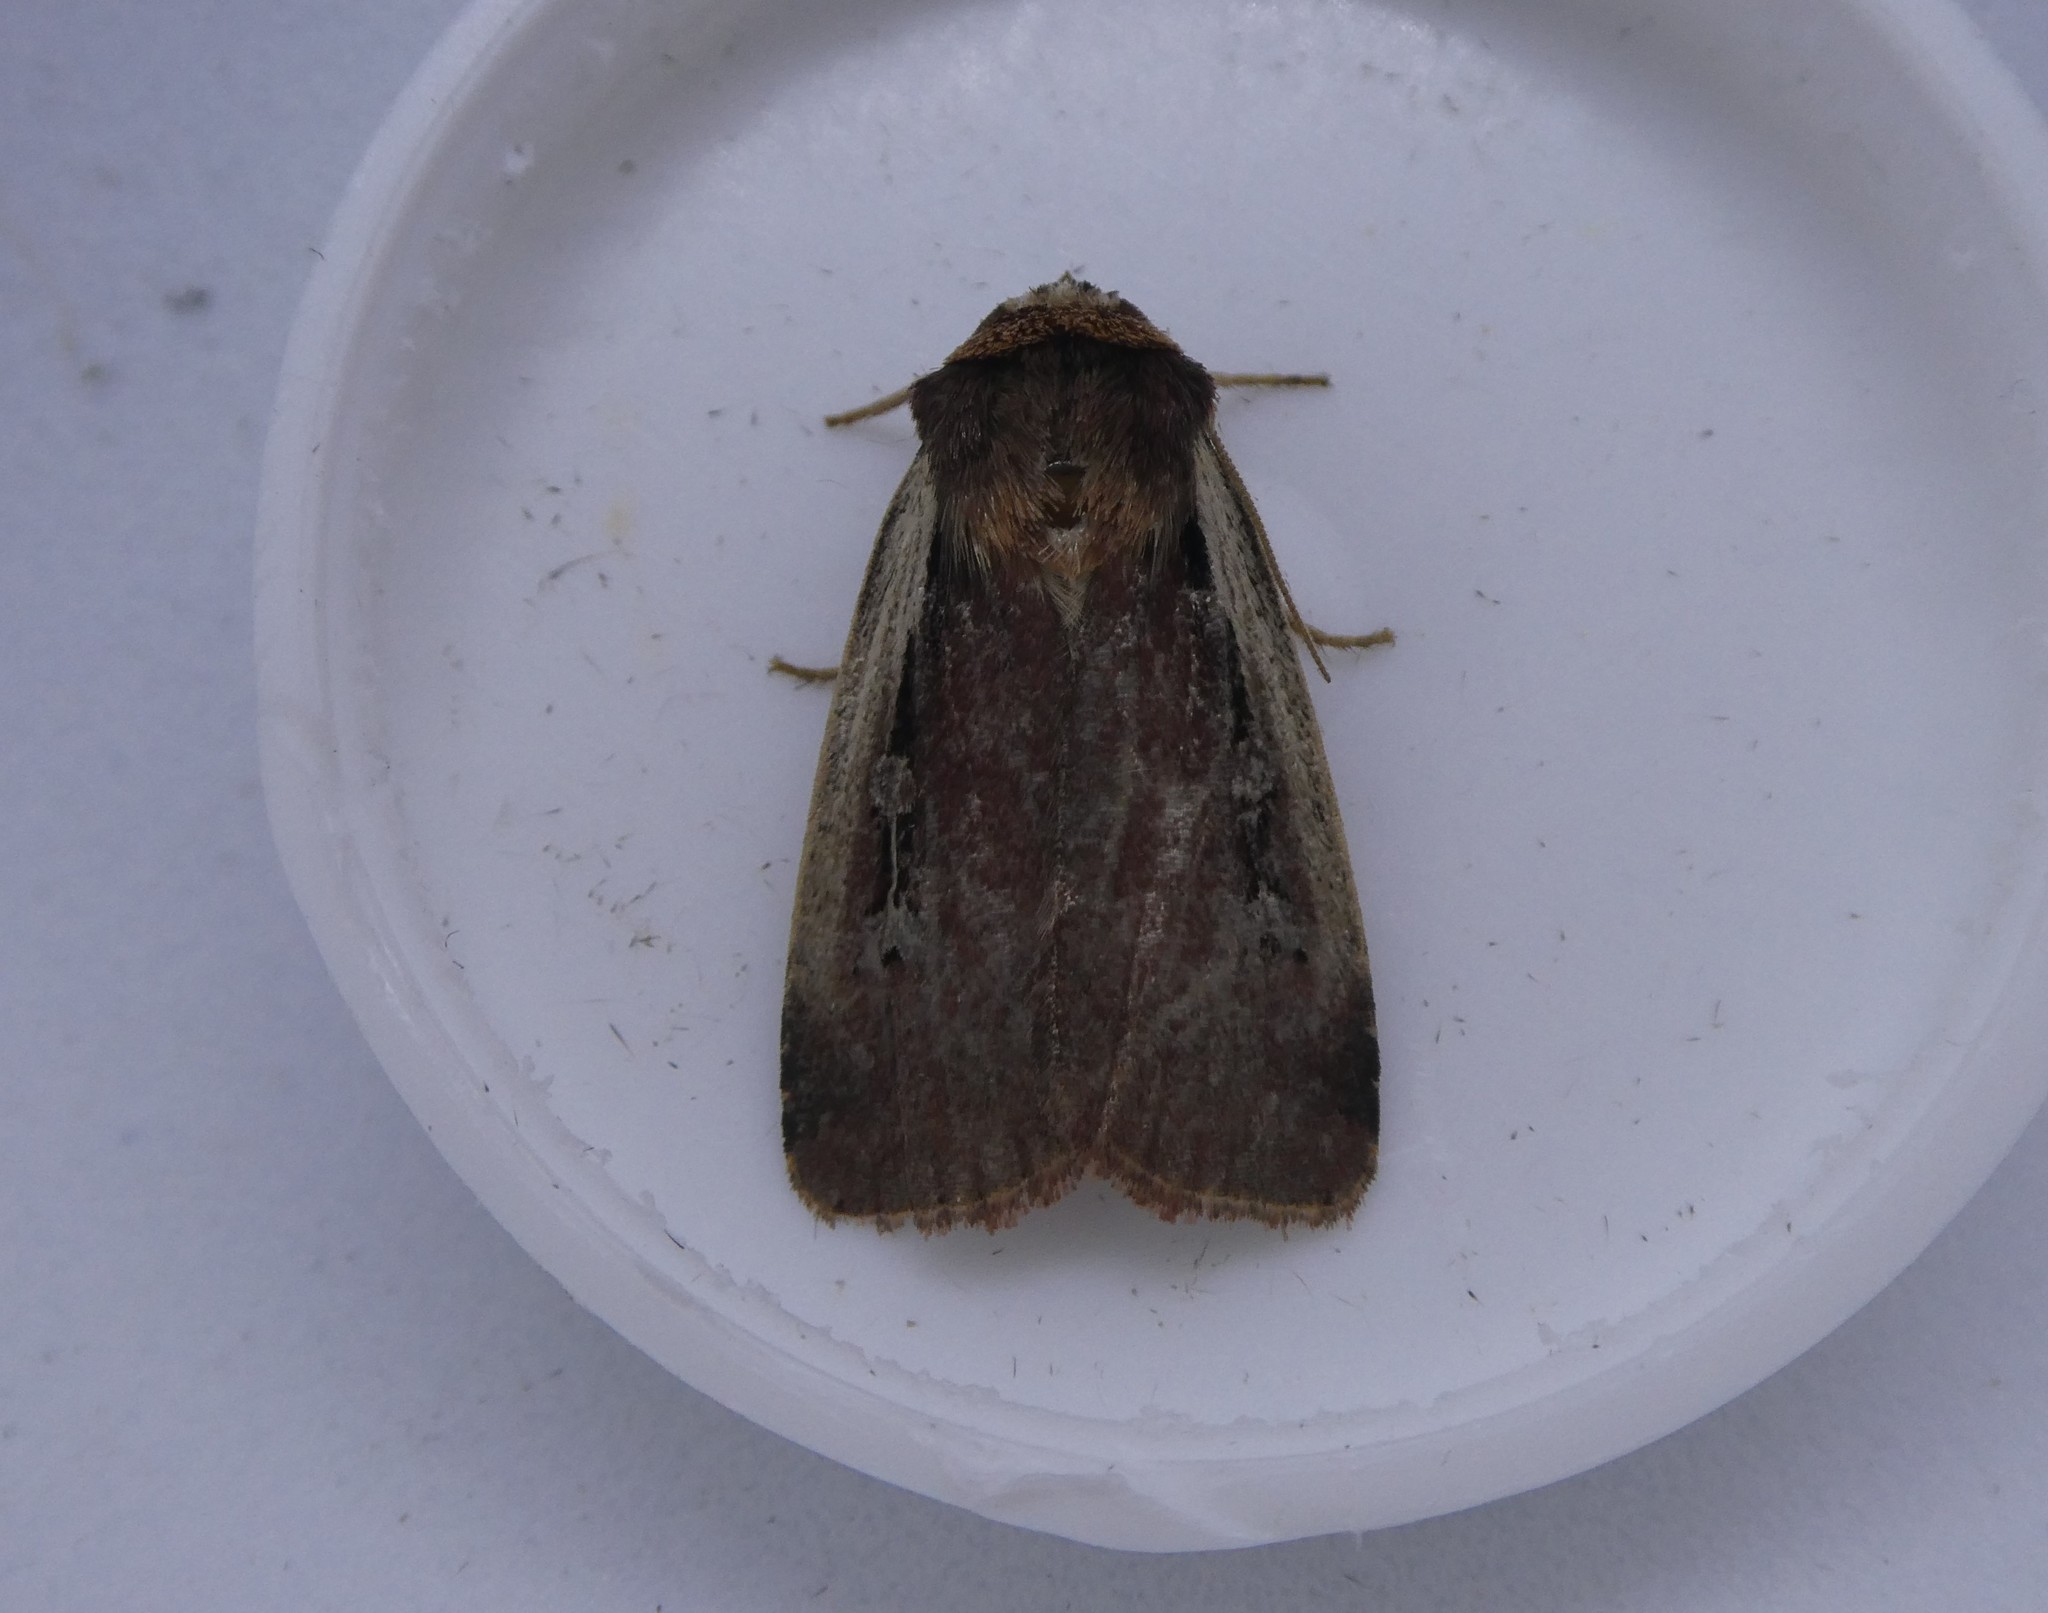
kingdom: Animalia
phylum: Arthropoda
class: Insecta
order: Lepidoptera
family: Noctuidae
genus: Ochropleura
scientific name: Ochropleura implecta
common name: Flame-shouldered dart
